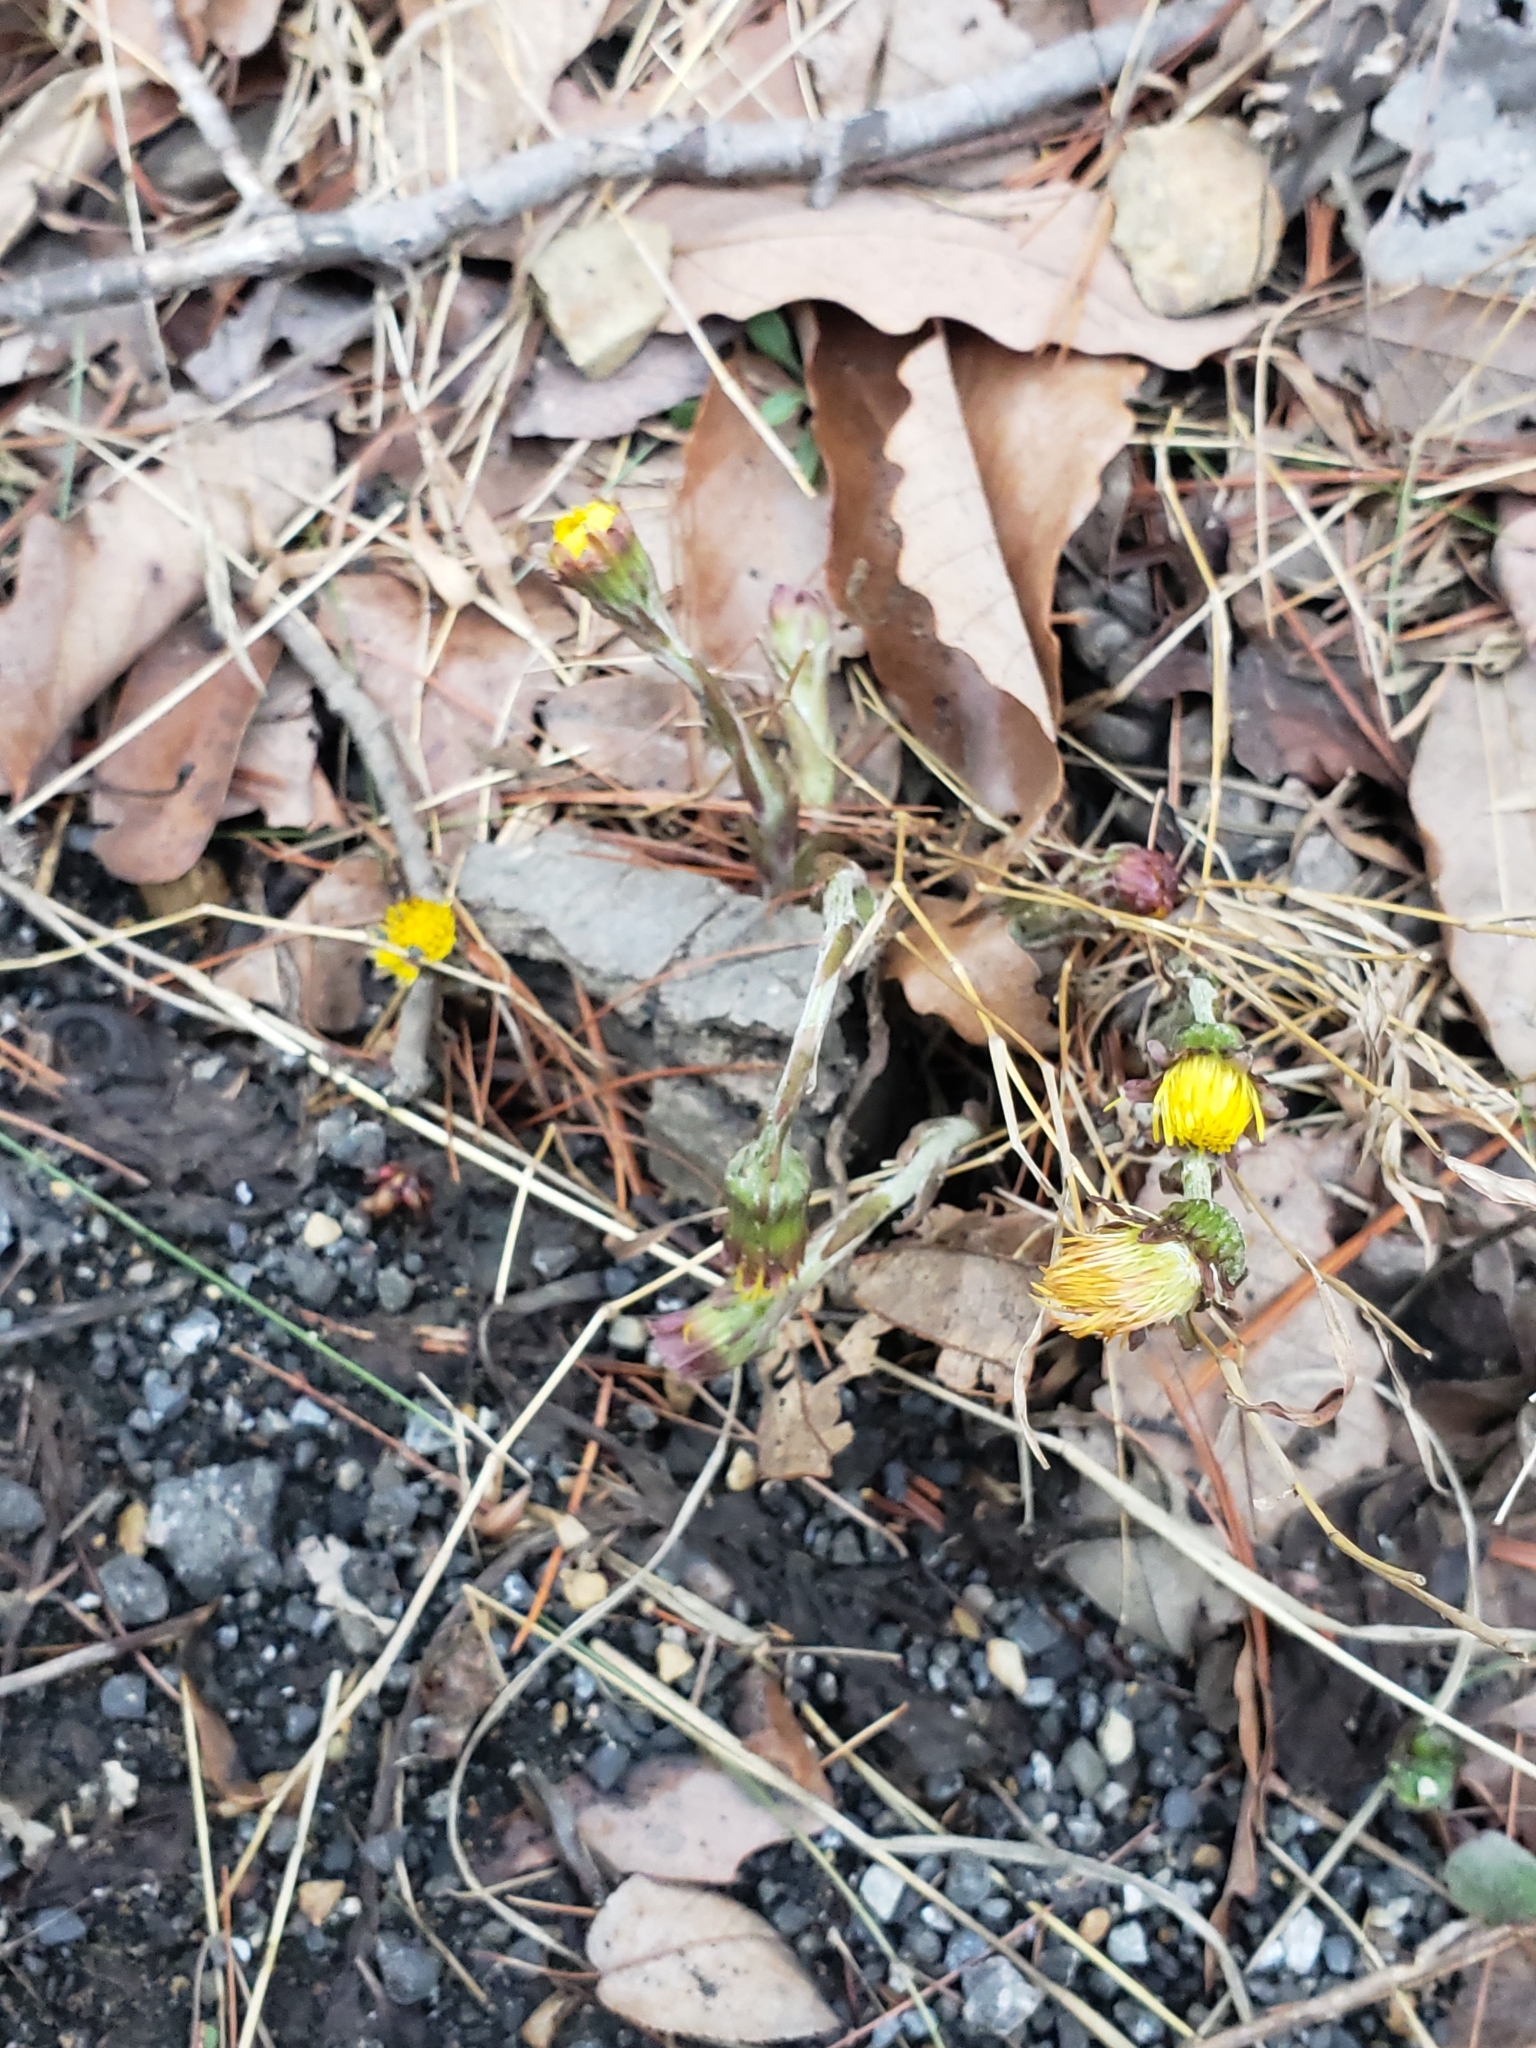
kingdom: Plantae
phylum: Tracheophyta
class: Magnoliopsida
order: Asterales
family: Asteraceae
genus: Tussilago
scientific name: Tussilago farfara
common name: Coltsfoot
